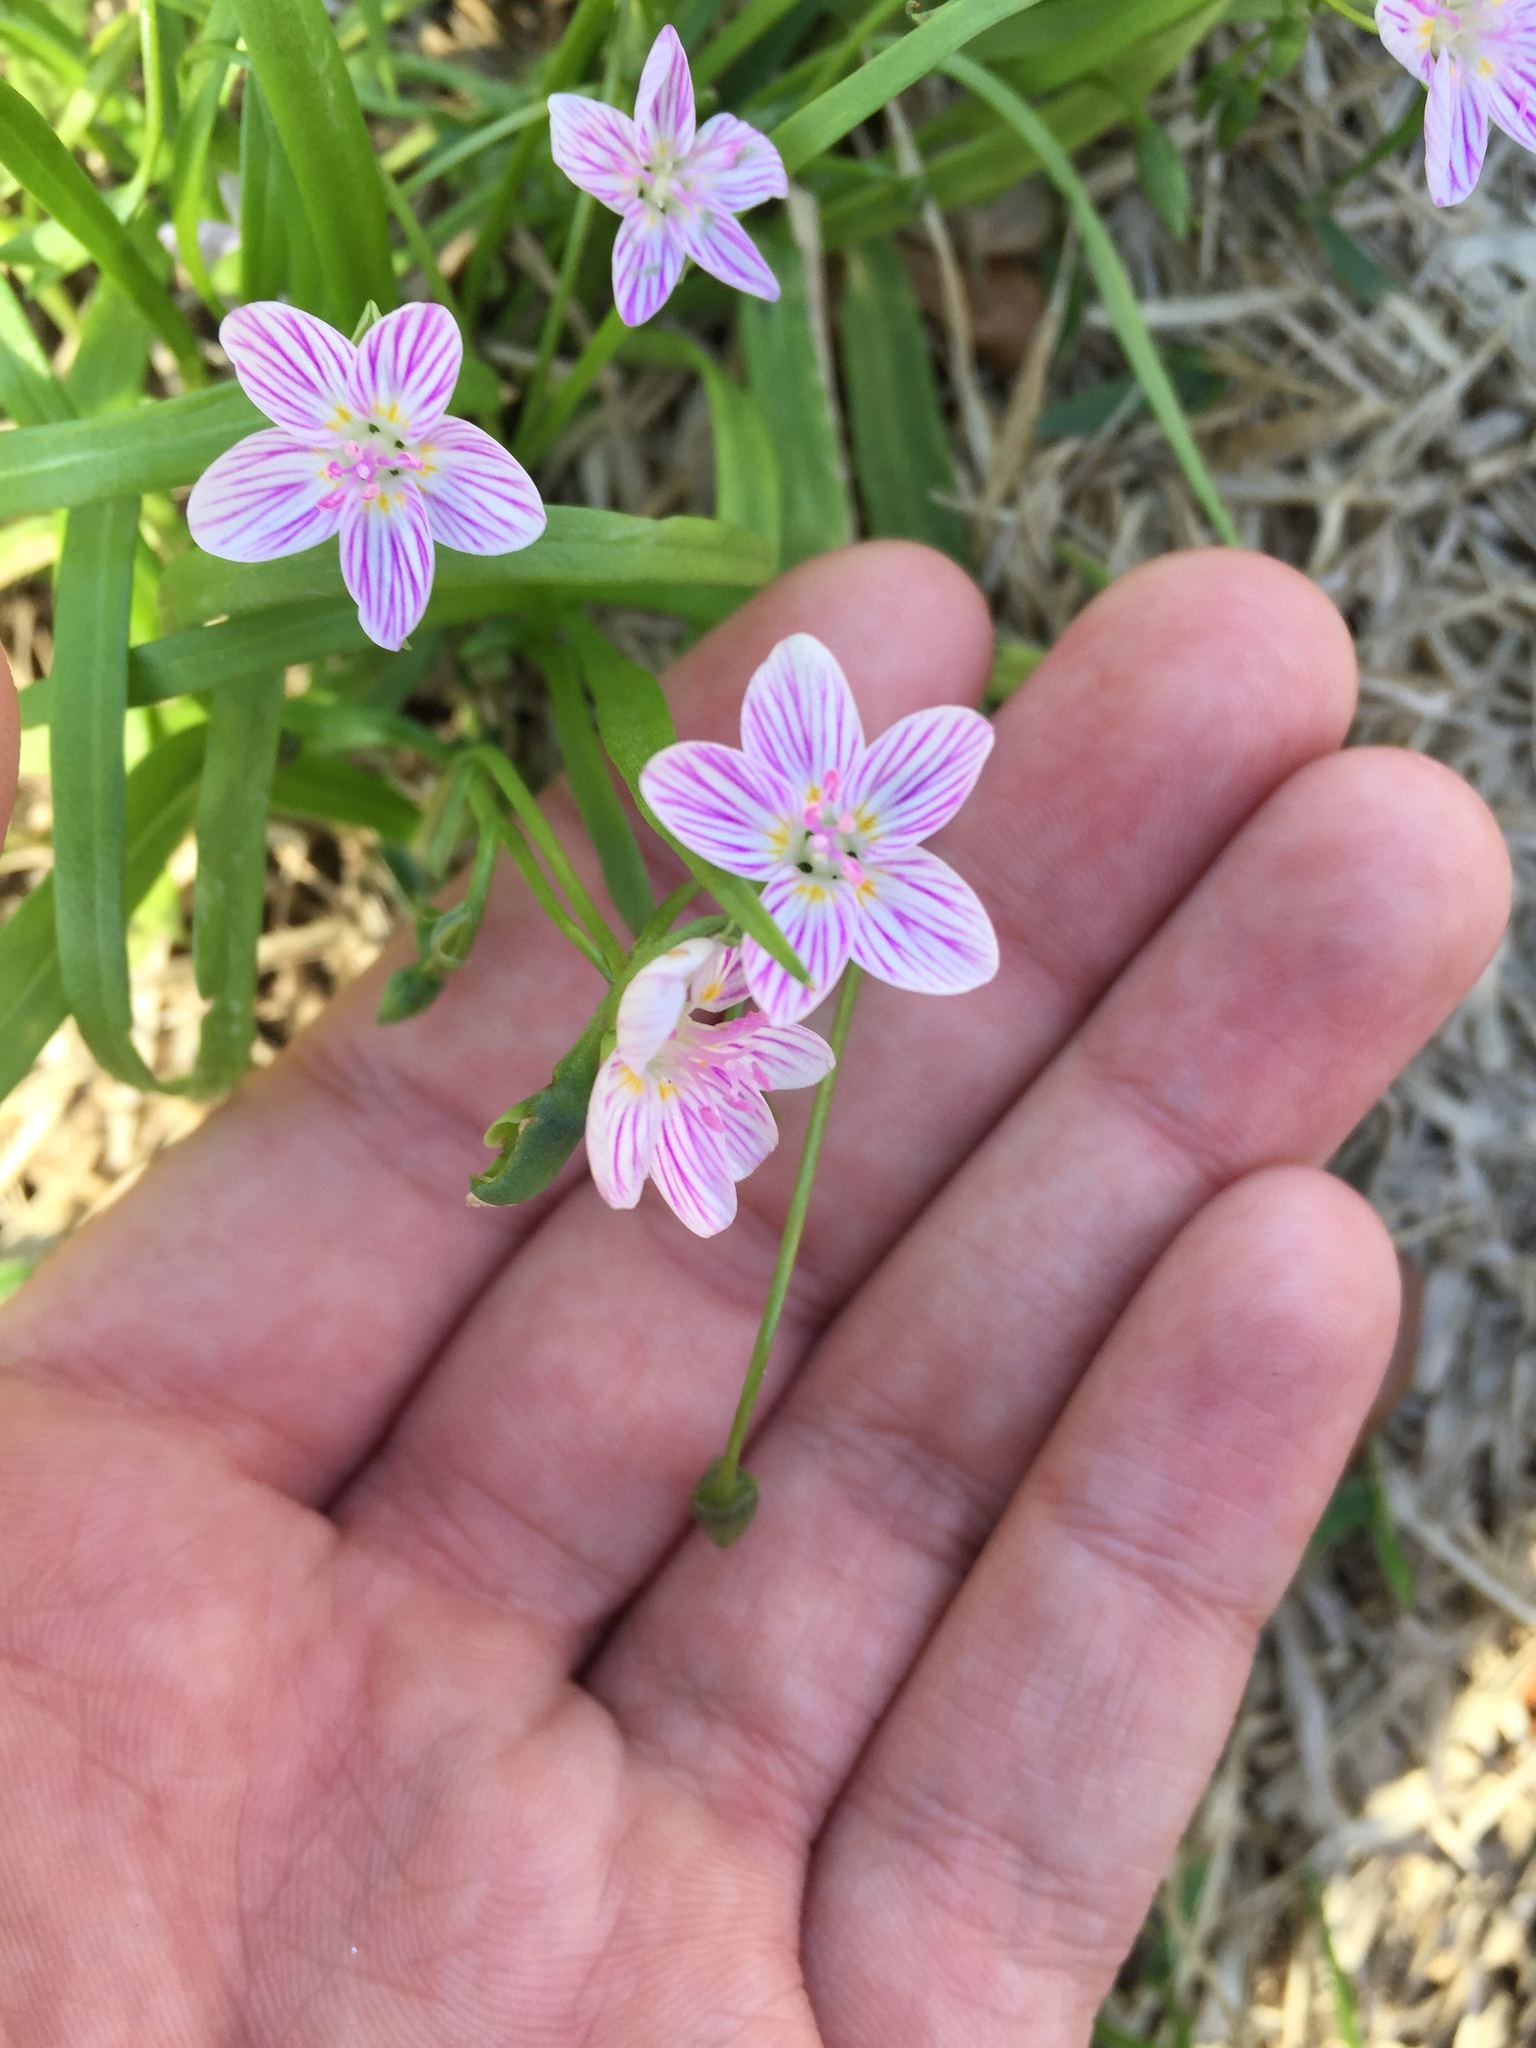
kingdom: Plantae
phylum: Tracheophyta
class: Magnoliopsida
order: Caryophyllales
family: Montiaceae
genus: Claytonia
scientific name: Claytonia virginica
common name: Virginia springbeauty
